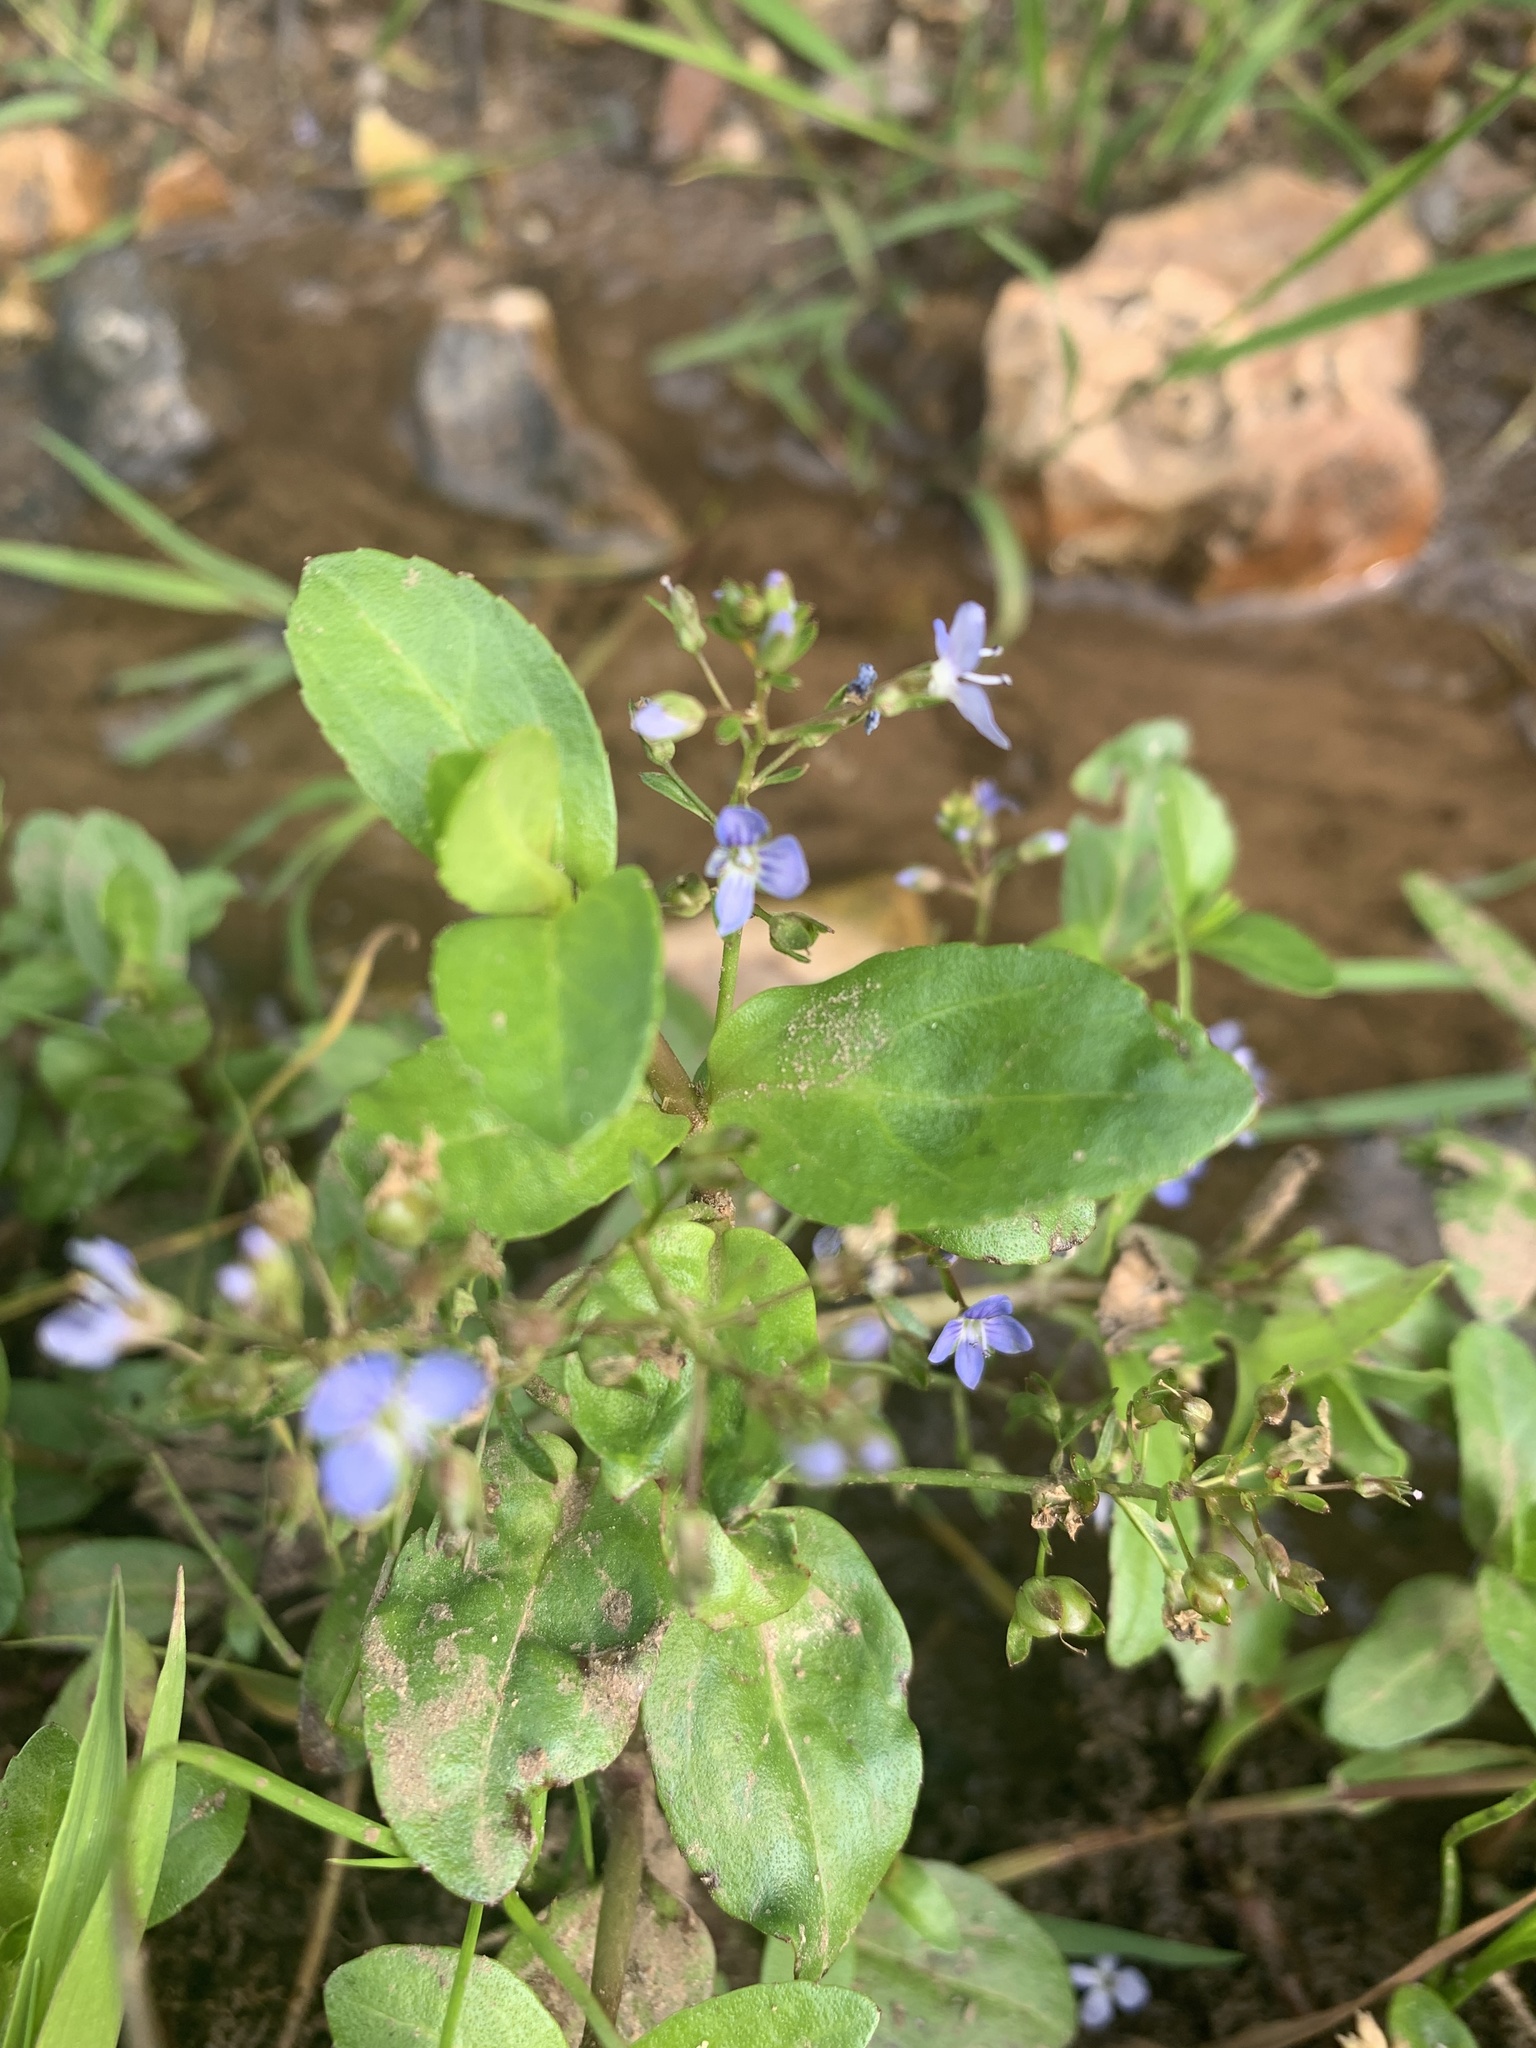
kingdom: Plantae
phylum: Tracheophyta
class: Magnoliopsida
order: Lamiales
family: Plantaginaceae
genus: Veronica
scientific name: Veronica beccabunga
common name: Brooklime
